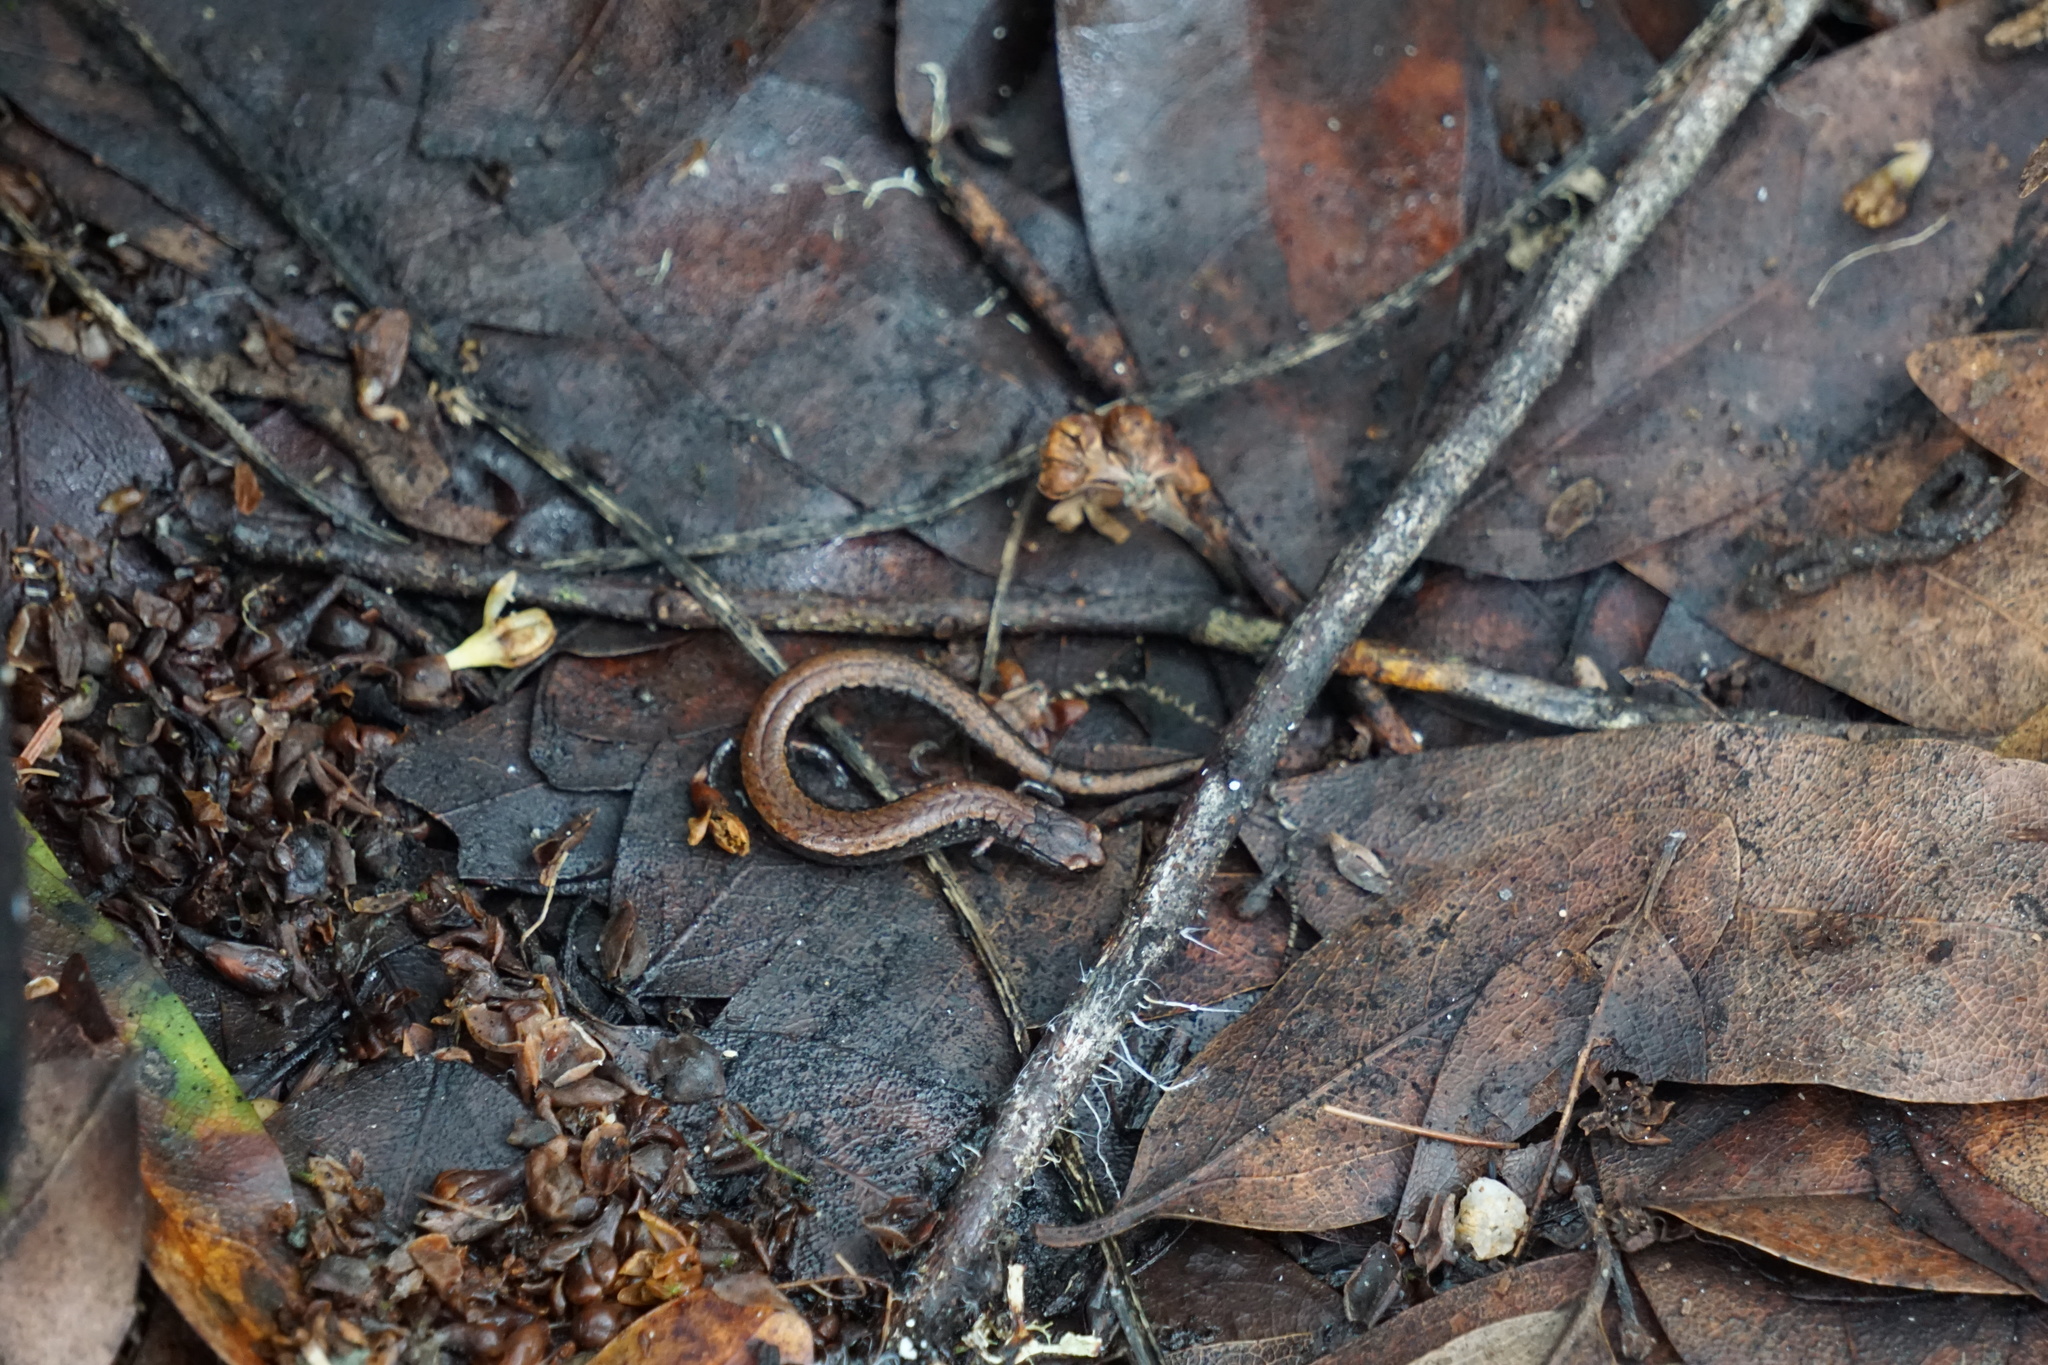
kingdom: Animalia
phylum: Chordata
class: Amphibia
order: Caudata
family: Plethodontidae
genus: Batrachoseps
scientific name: Batrachoseps attenuatus
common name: California slender salamander
